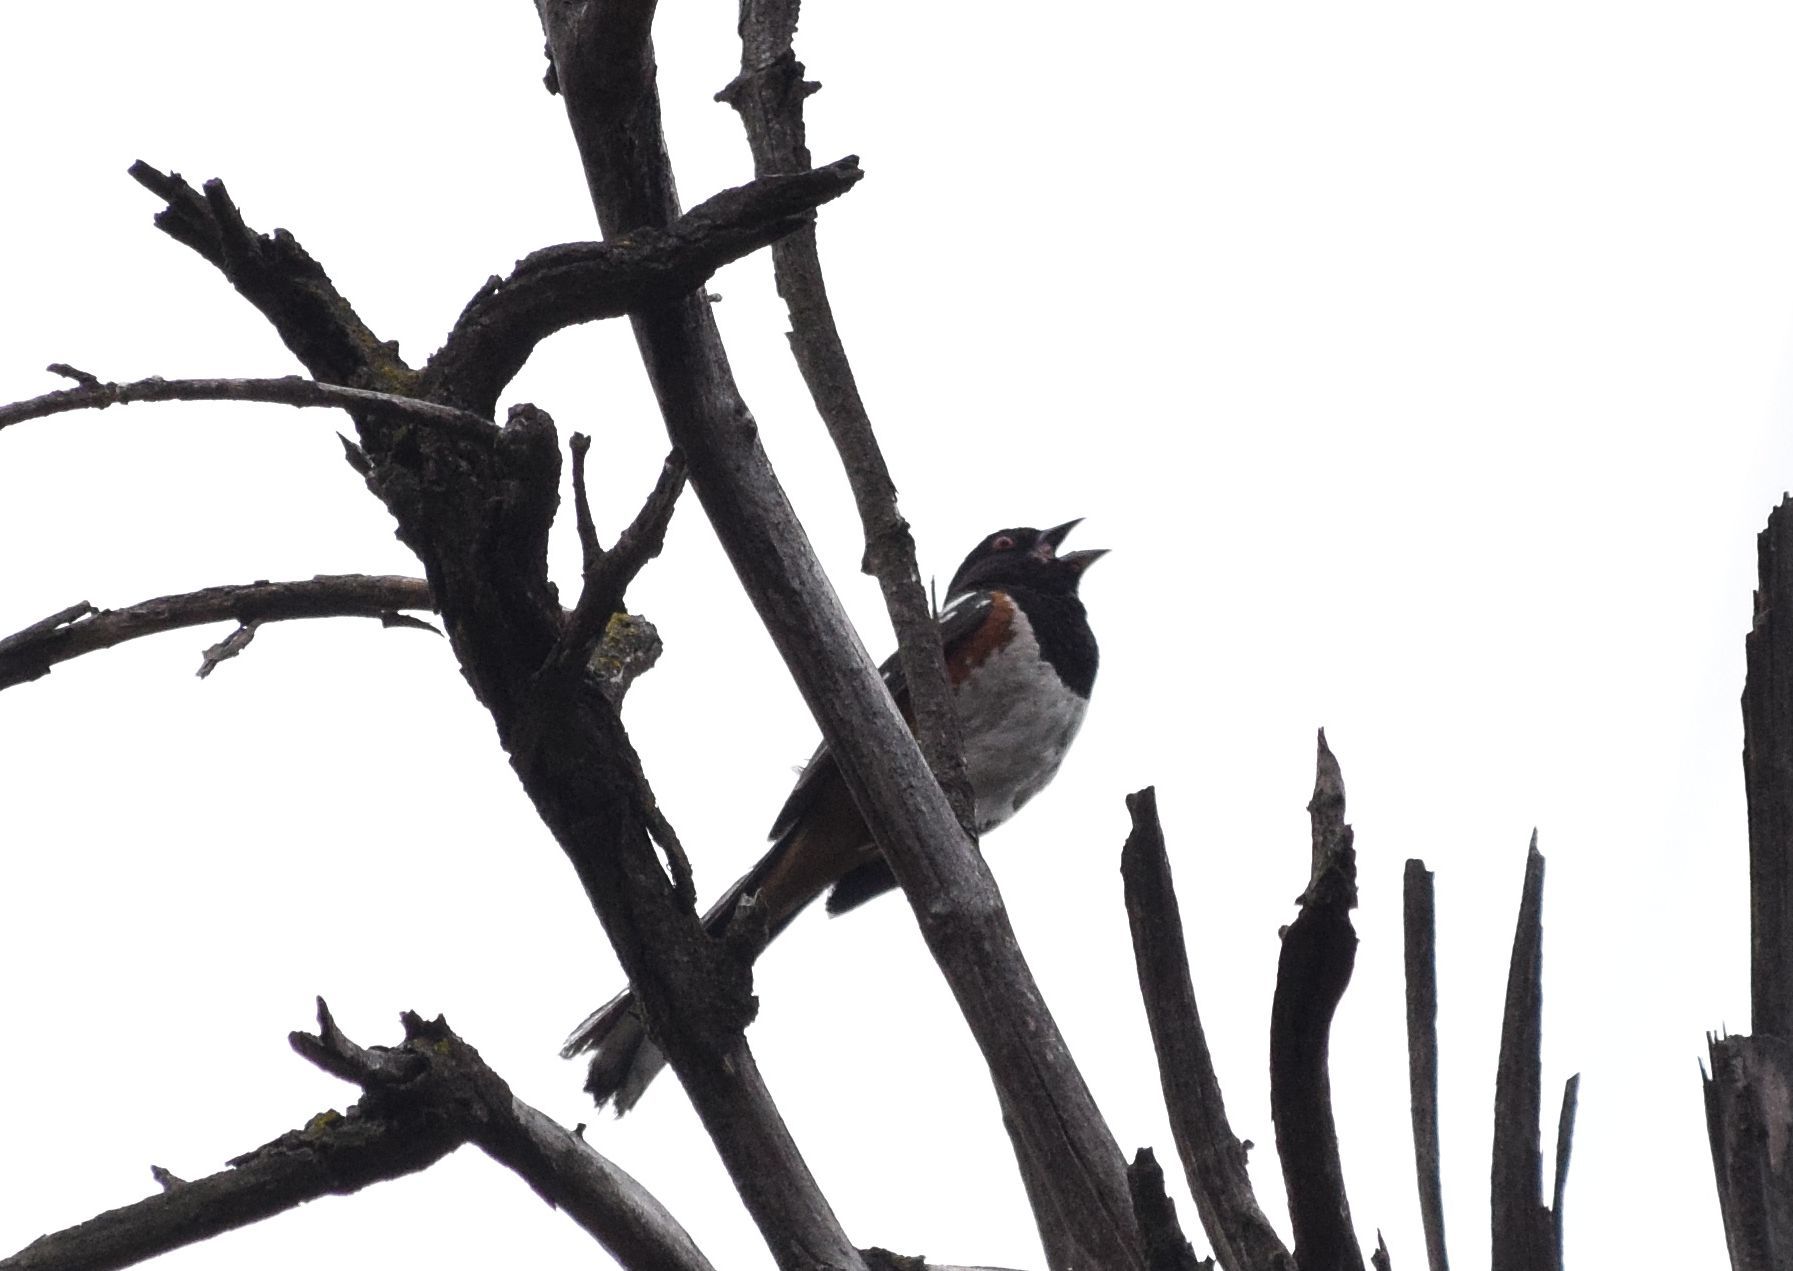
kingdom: Animalia
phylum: Chordata
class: Aves
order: Passeriformes
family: Passerellidae
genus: Pipilo
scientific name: Pipilo maculatus
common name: Spotted towhee
